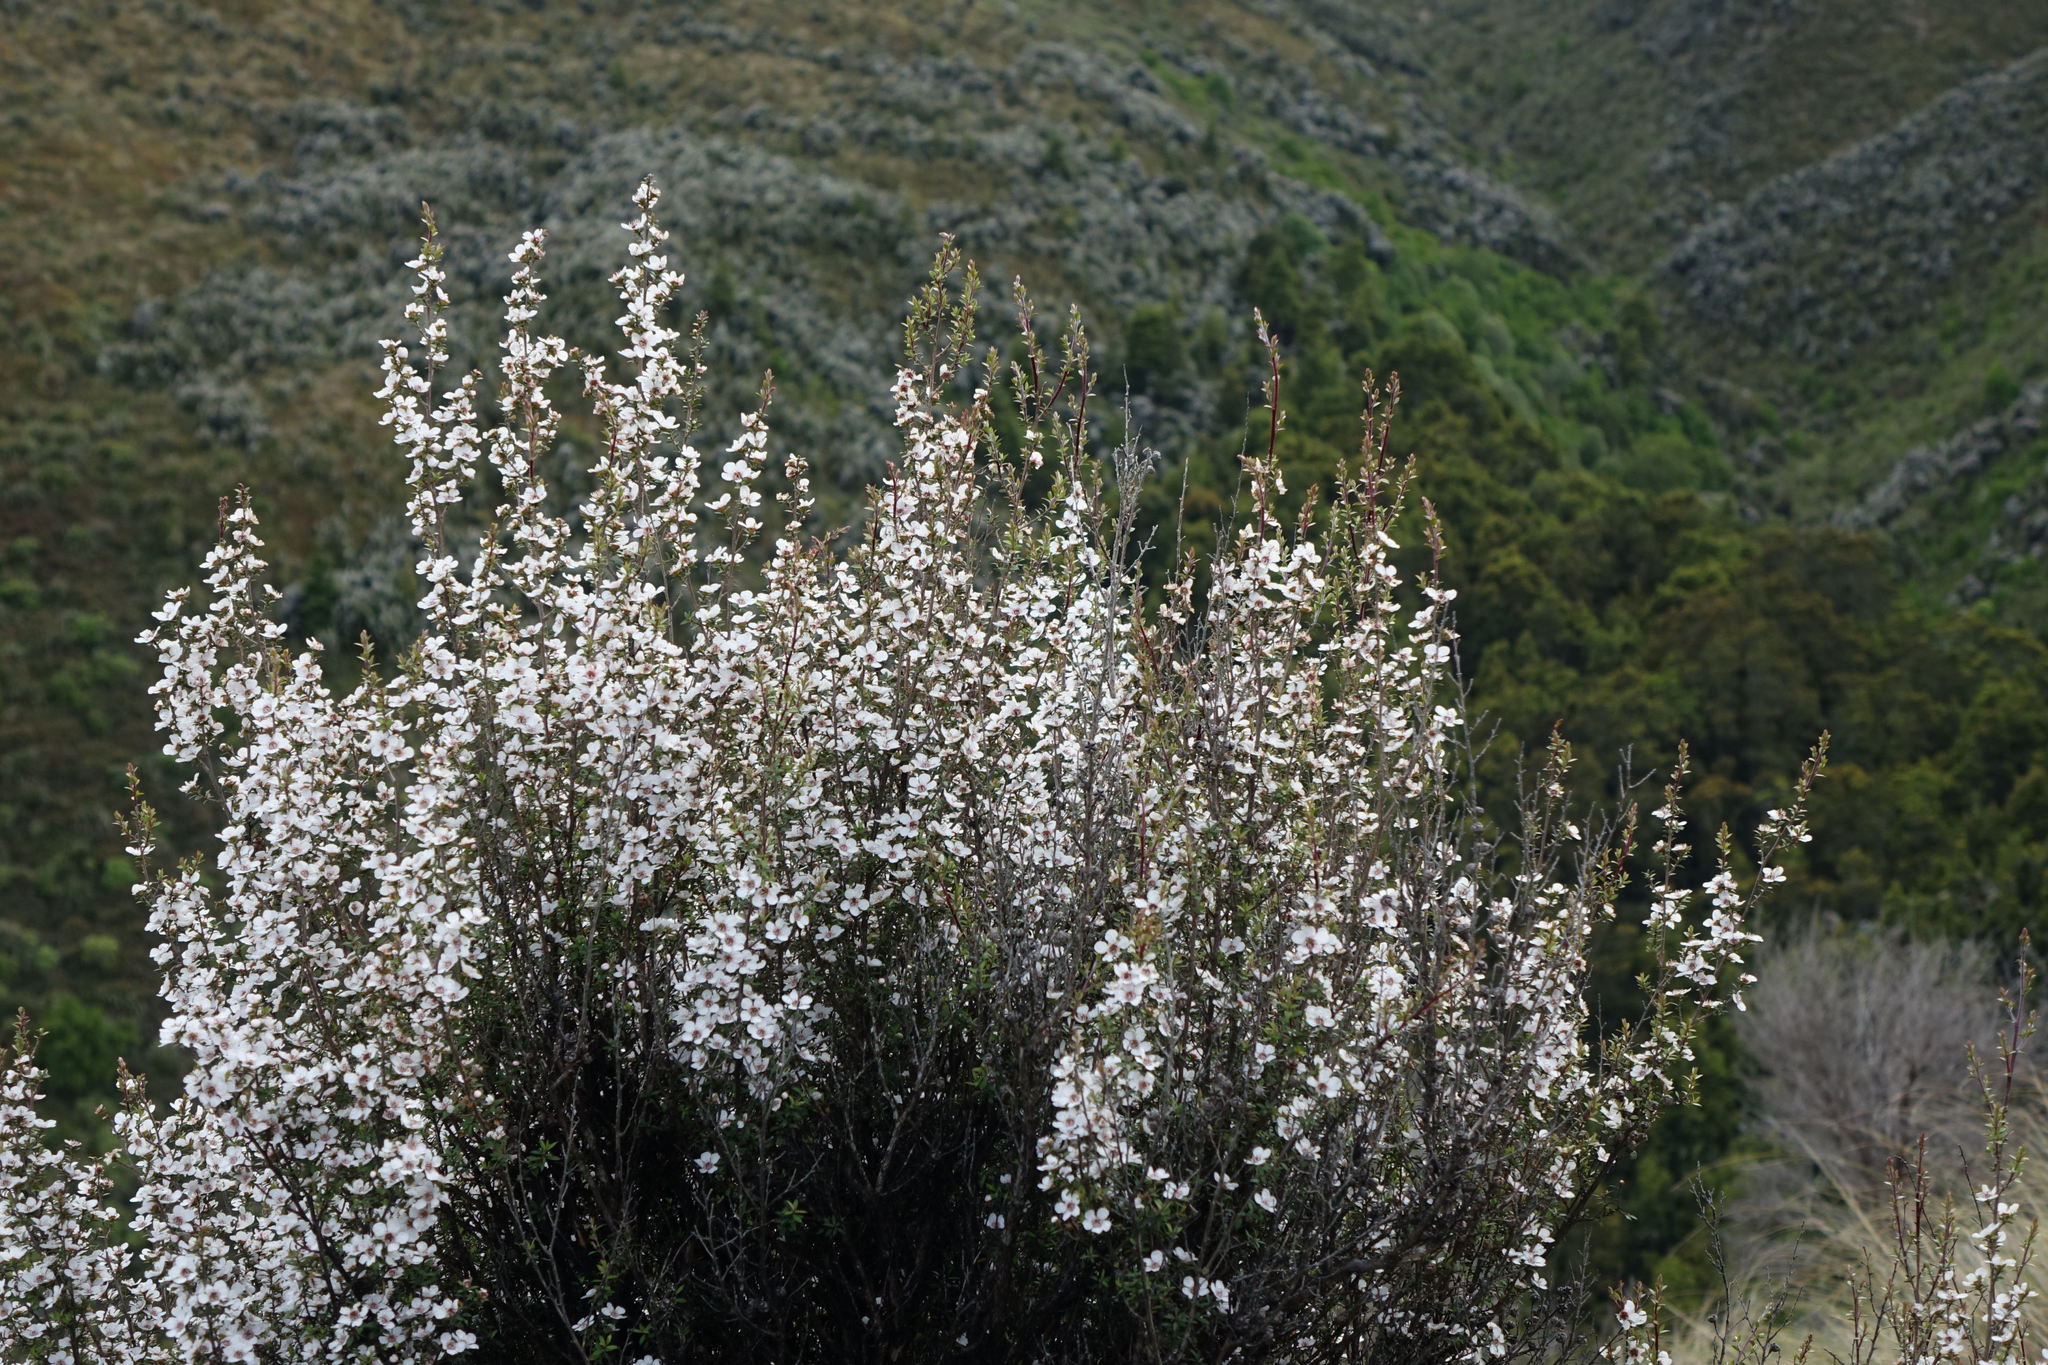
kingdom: Plantae
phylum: Tracheophyta
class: Magnoliopsida
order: Myrtales
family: Myrtaceae
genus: Leptospermum
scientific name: Leptospermum scoparium
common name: Broom tea-tree
